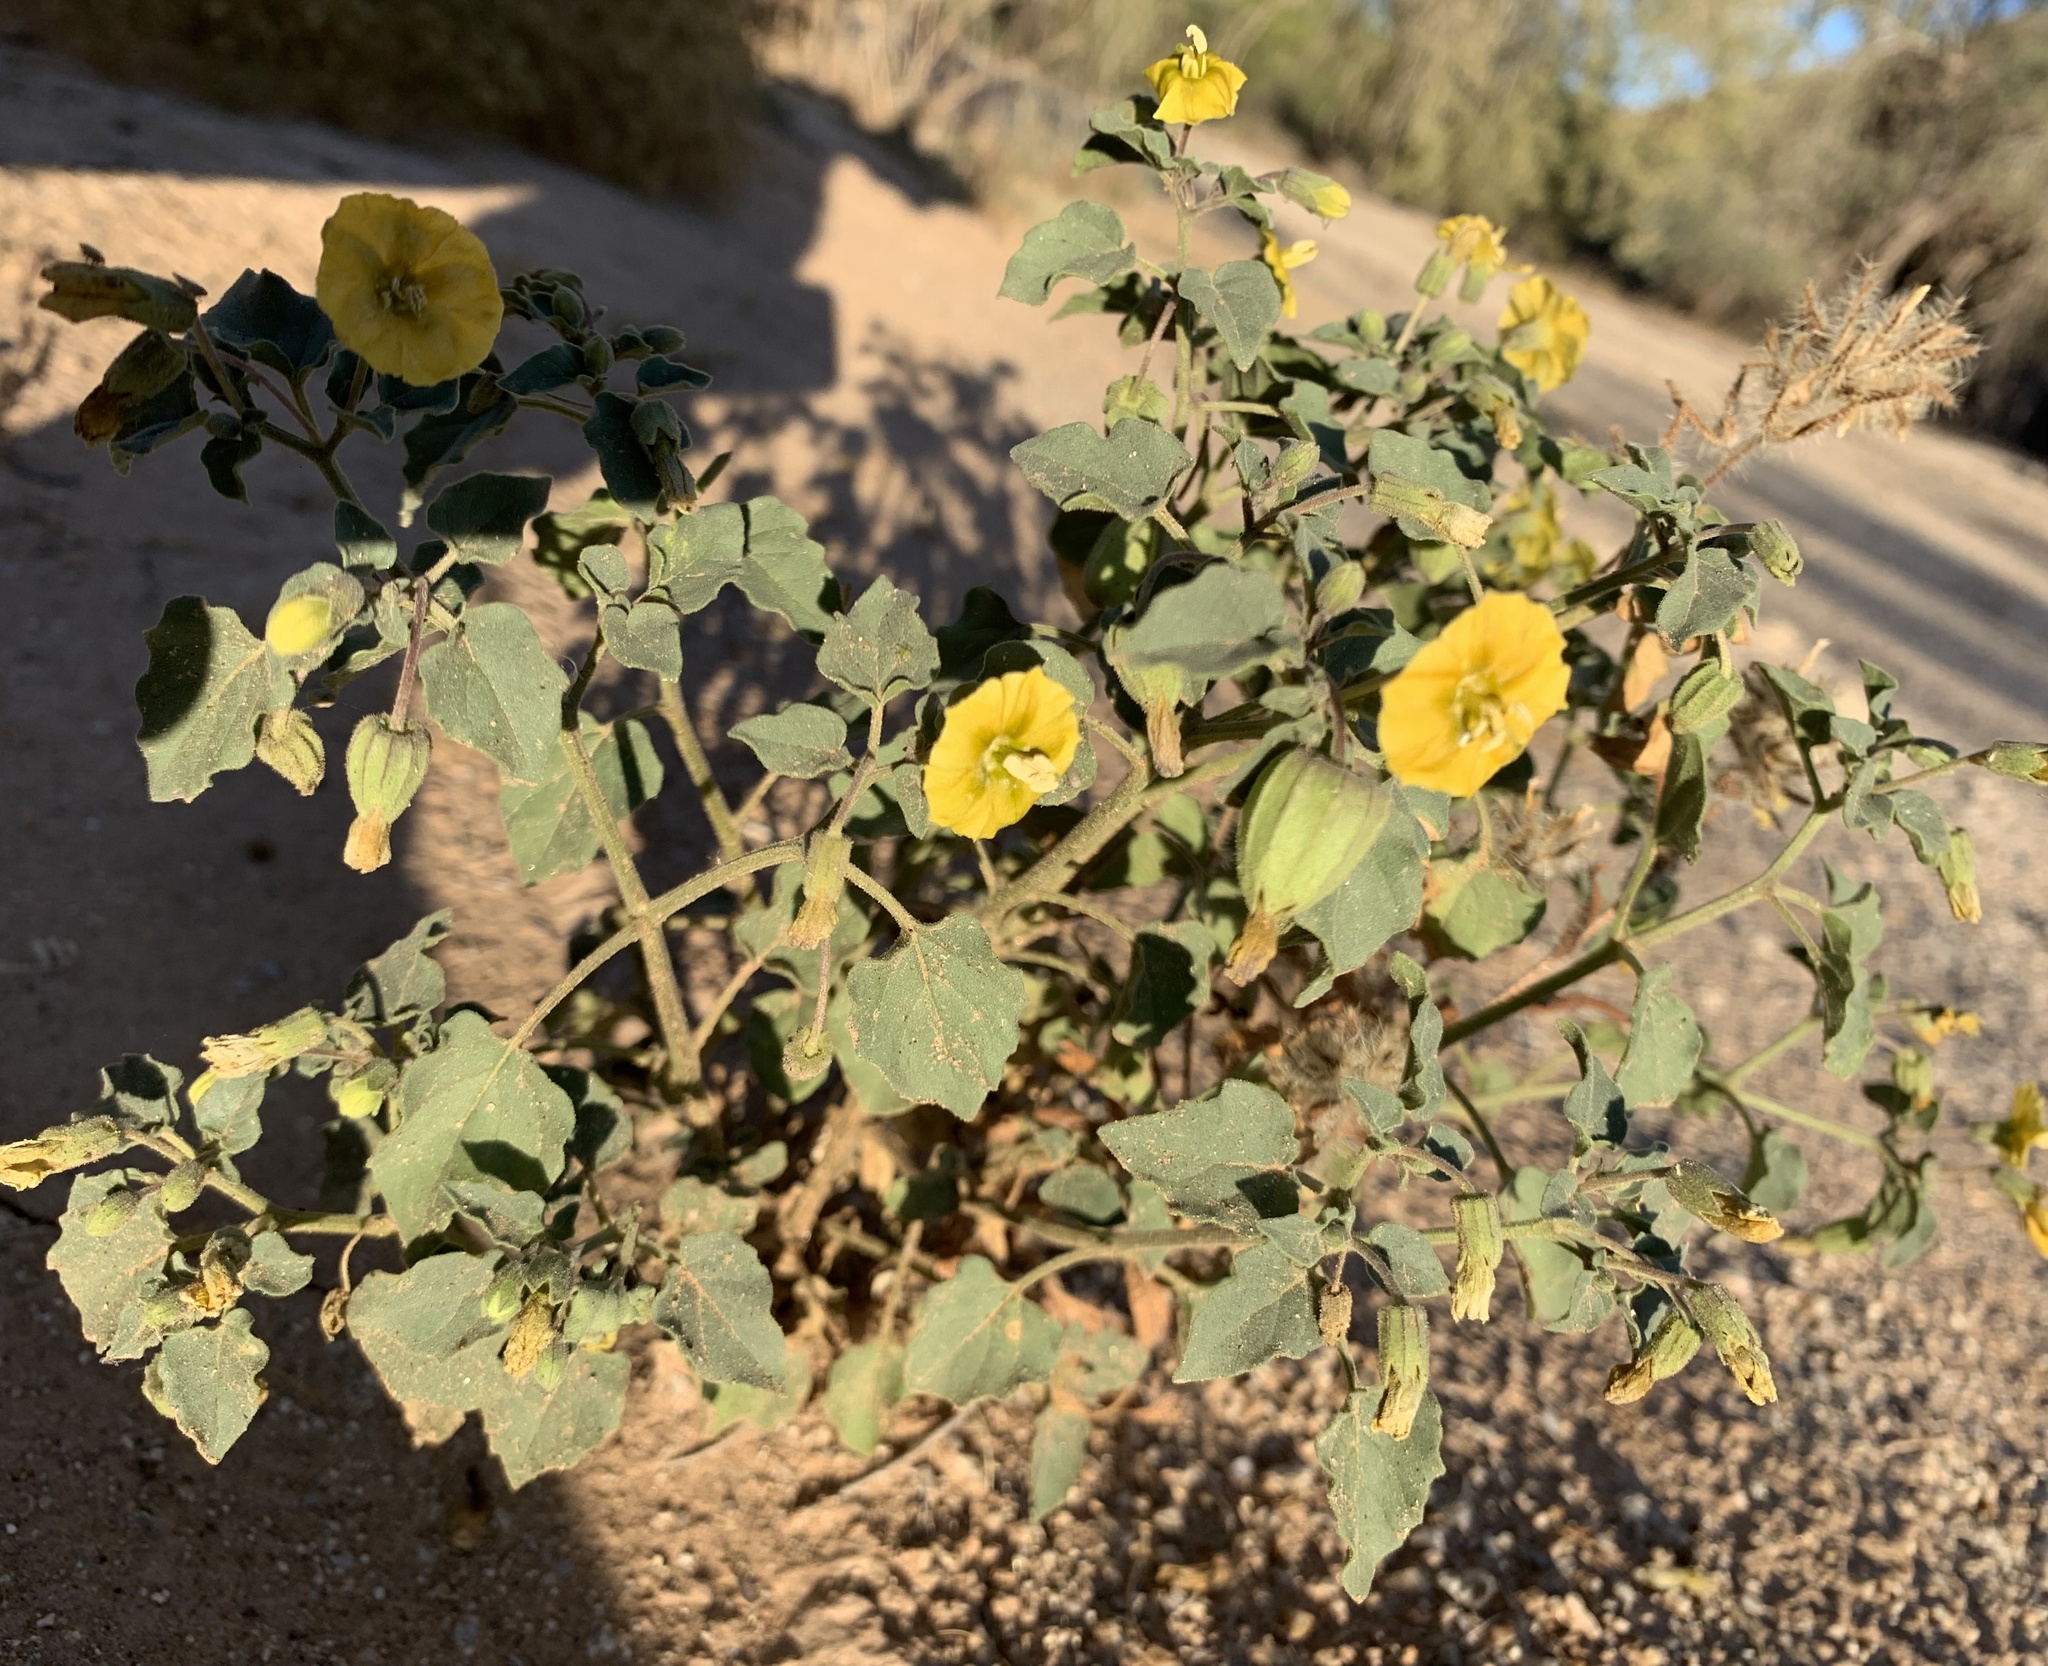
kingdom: Plantae
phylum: Tracheophyta
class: Magnoliopsida
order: Solanales
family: Solanaceae
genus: Physalis
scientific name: Physalis crassifolia
